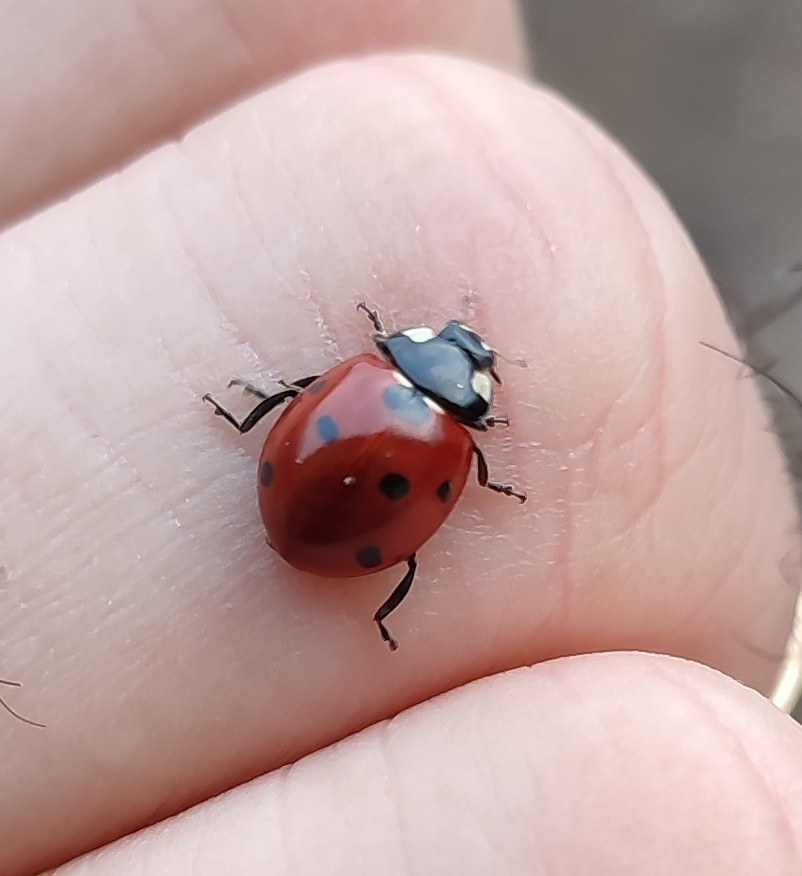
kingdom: Animalia
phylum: Arthropoda
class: Insecta
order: Coleoptera
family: Coccinellidae
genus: Coccinella
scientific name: Coccinella septempunctata
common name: Sevenspotted lady beetle
